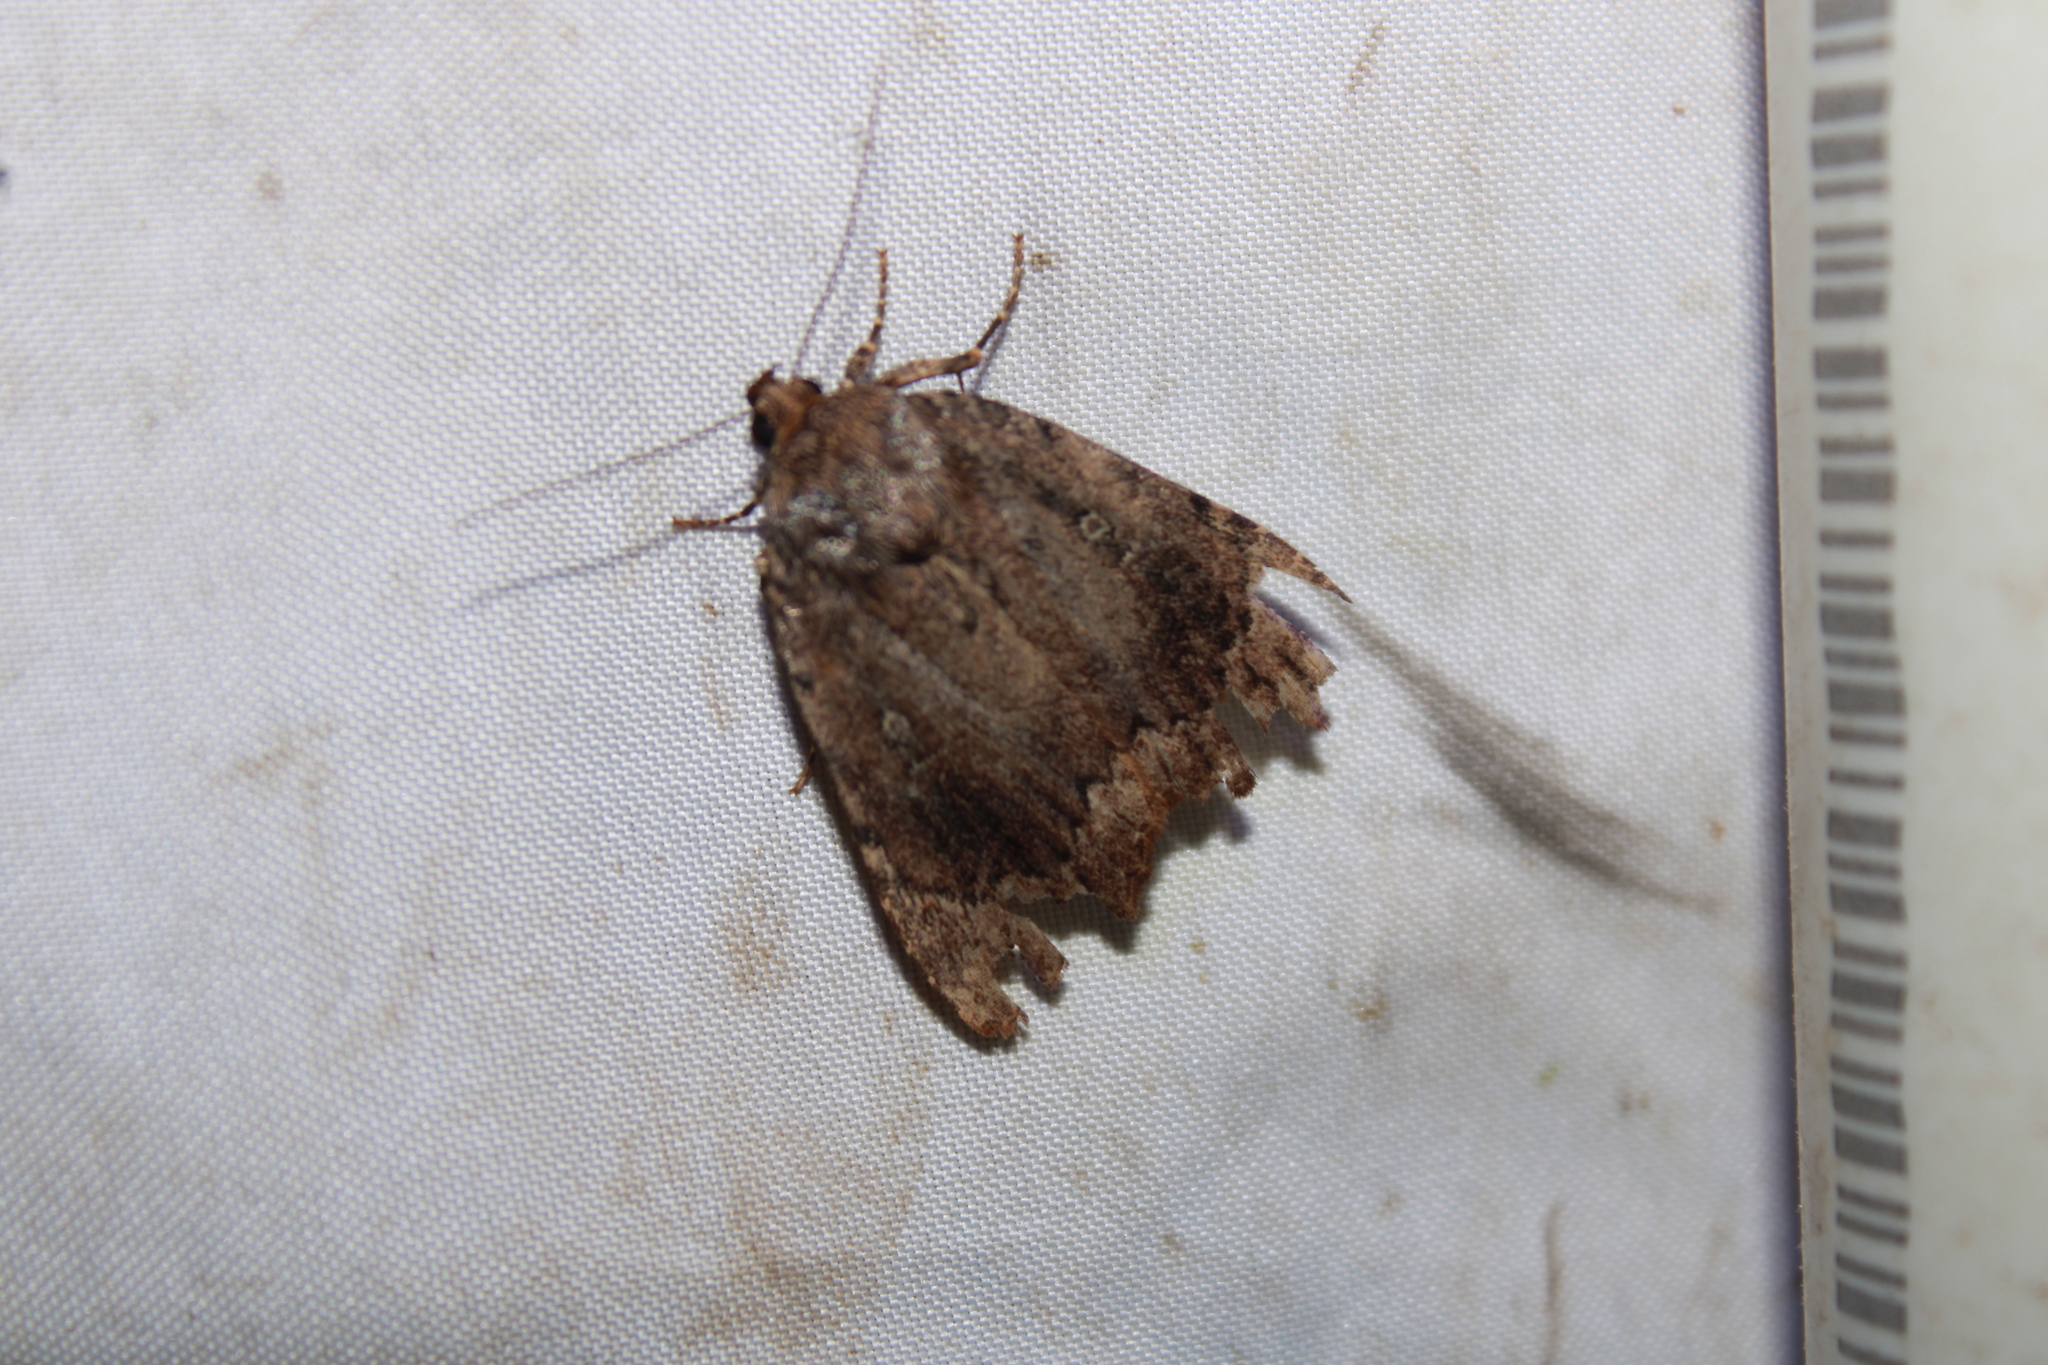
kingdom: Animalia
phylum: Arthropoda
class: Insecta
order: Lepidoptera
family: Noctuidae
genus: Amphipyra
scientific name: Amphipyra pyramidoides
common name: American copper underwing
